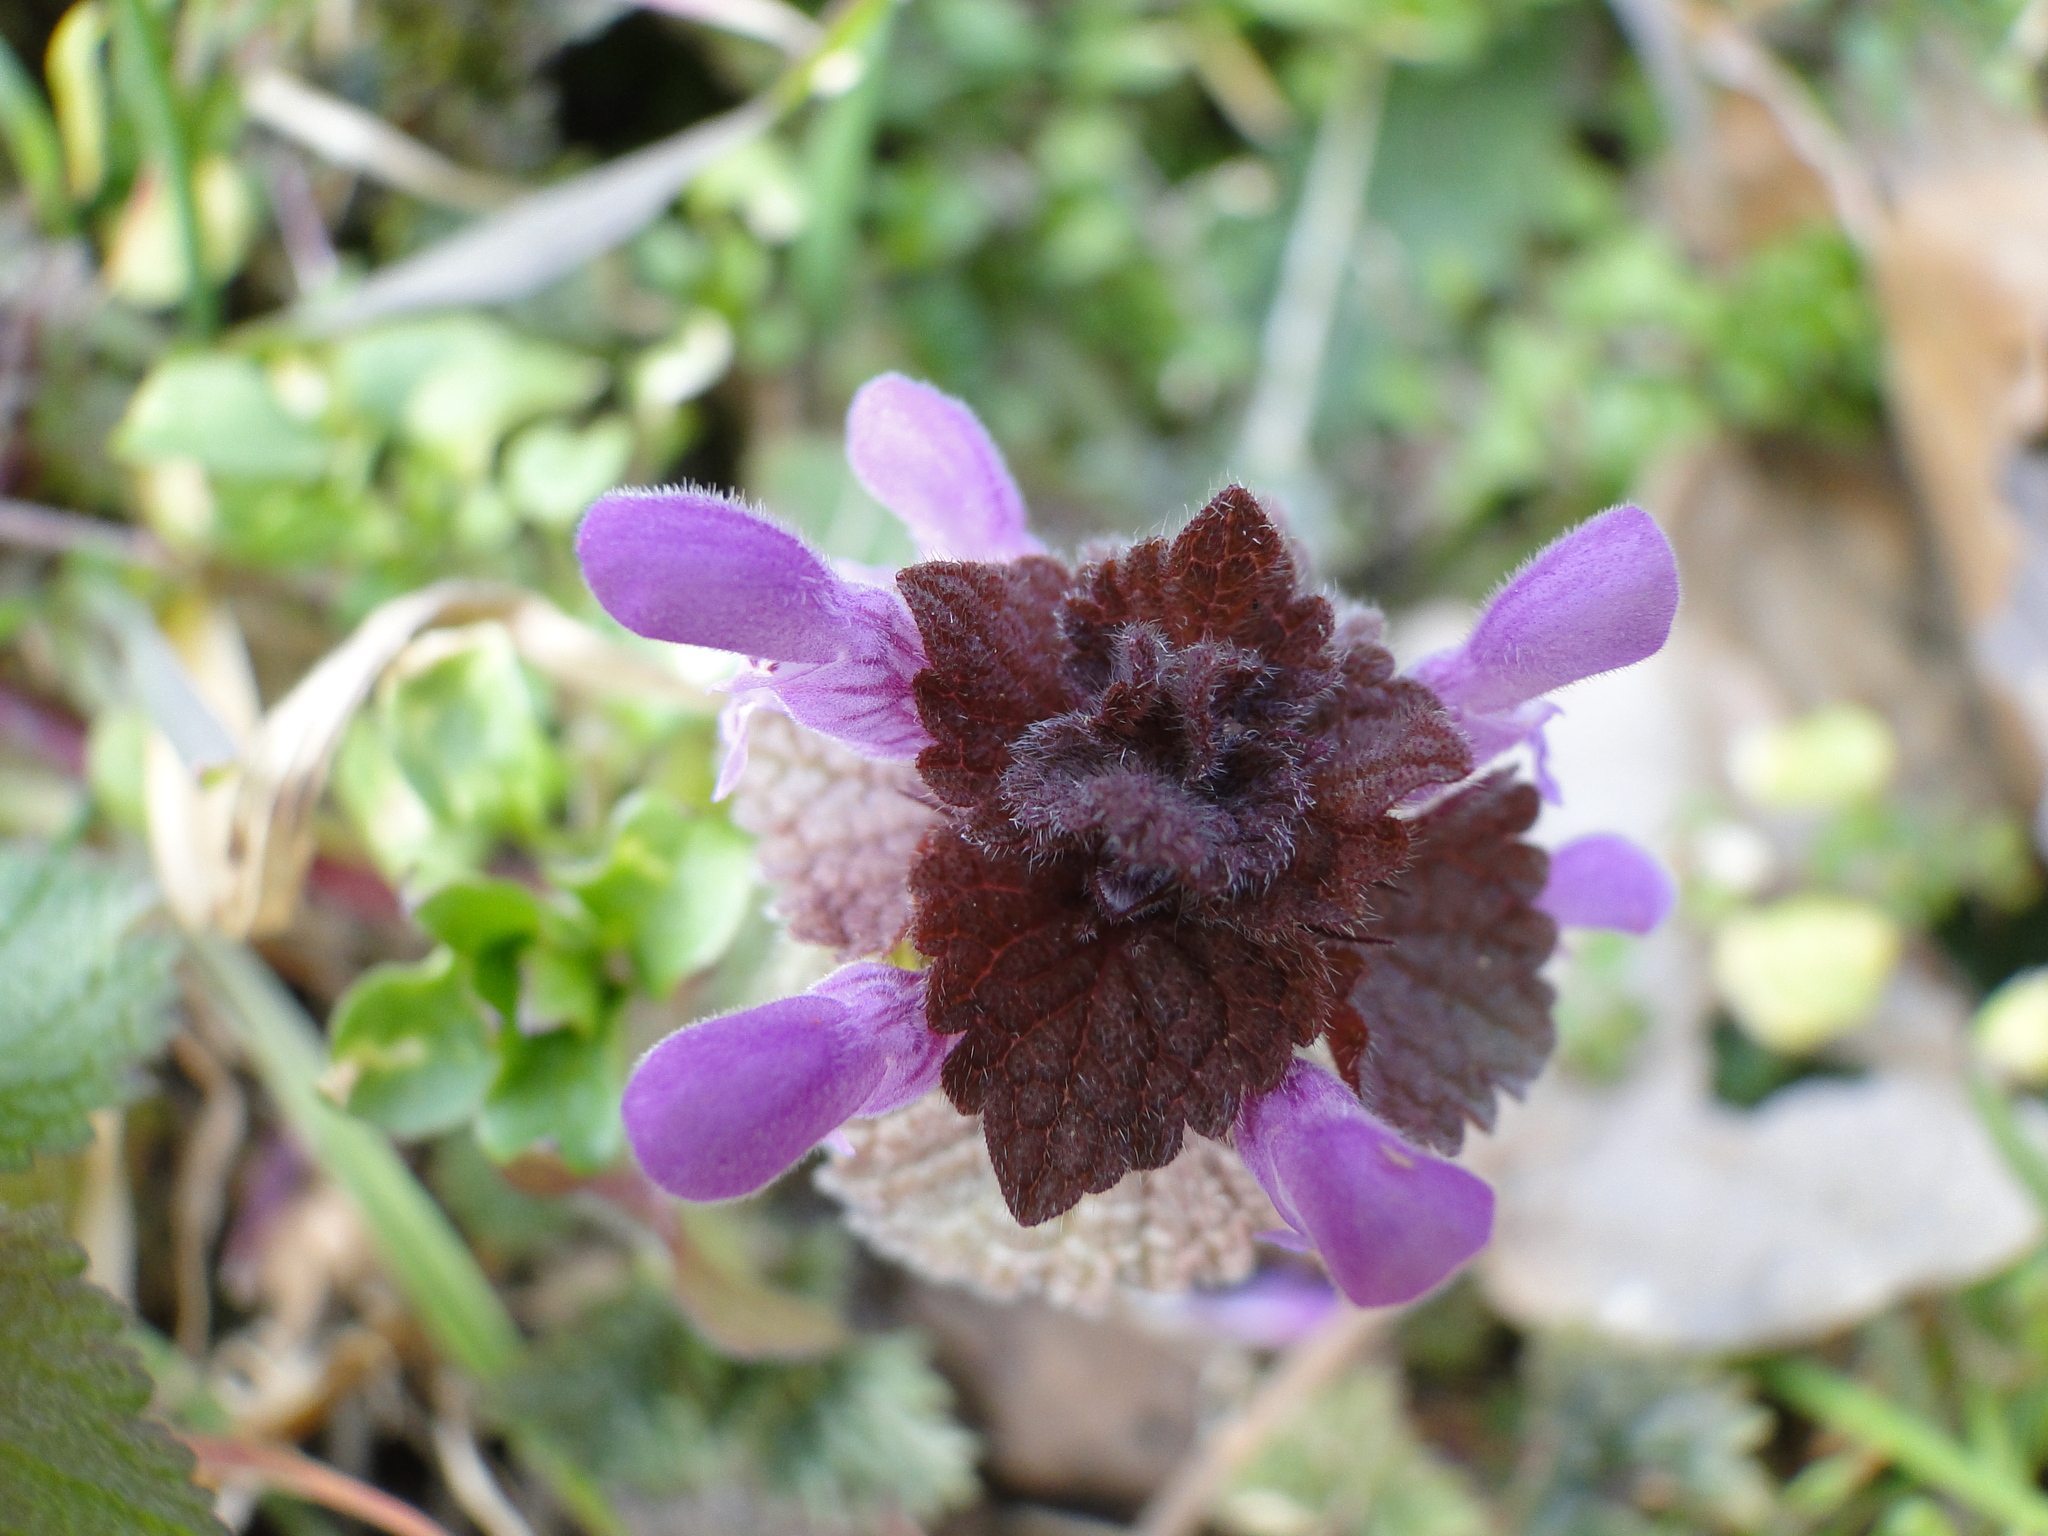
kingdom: Plantae
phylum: Tracheophyta
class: Magnoliopsida
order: Lamiales
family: Lamiaceae
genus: Lamium
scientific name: Lamium purpureum
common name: Red dead-nettle
